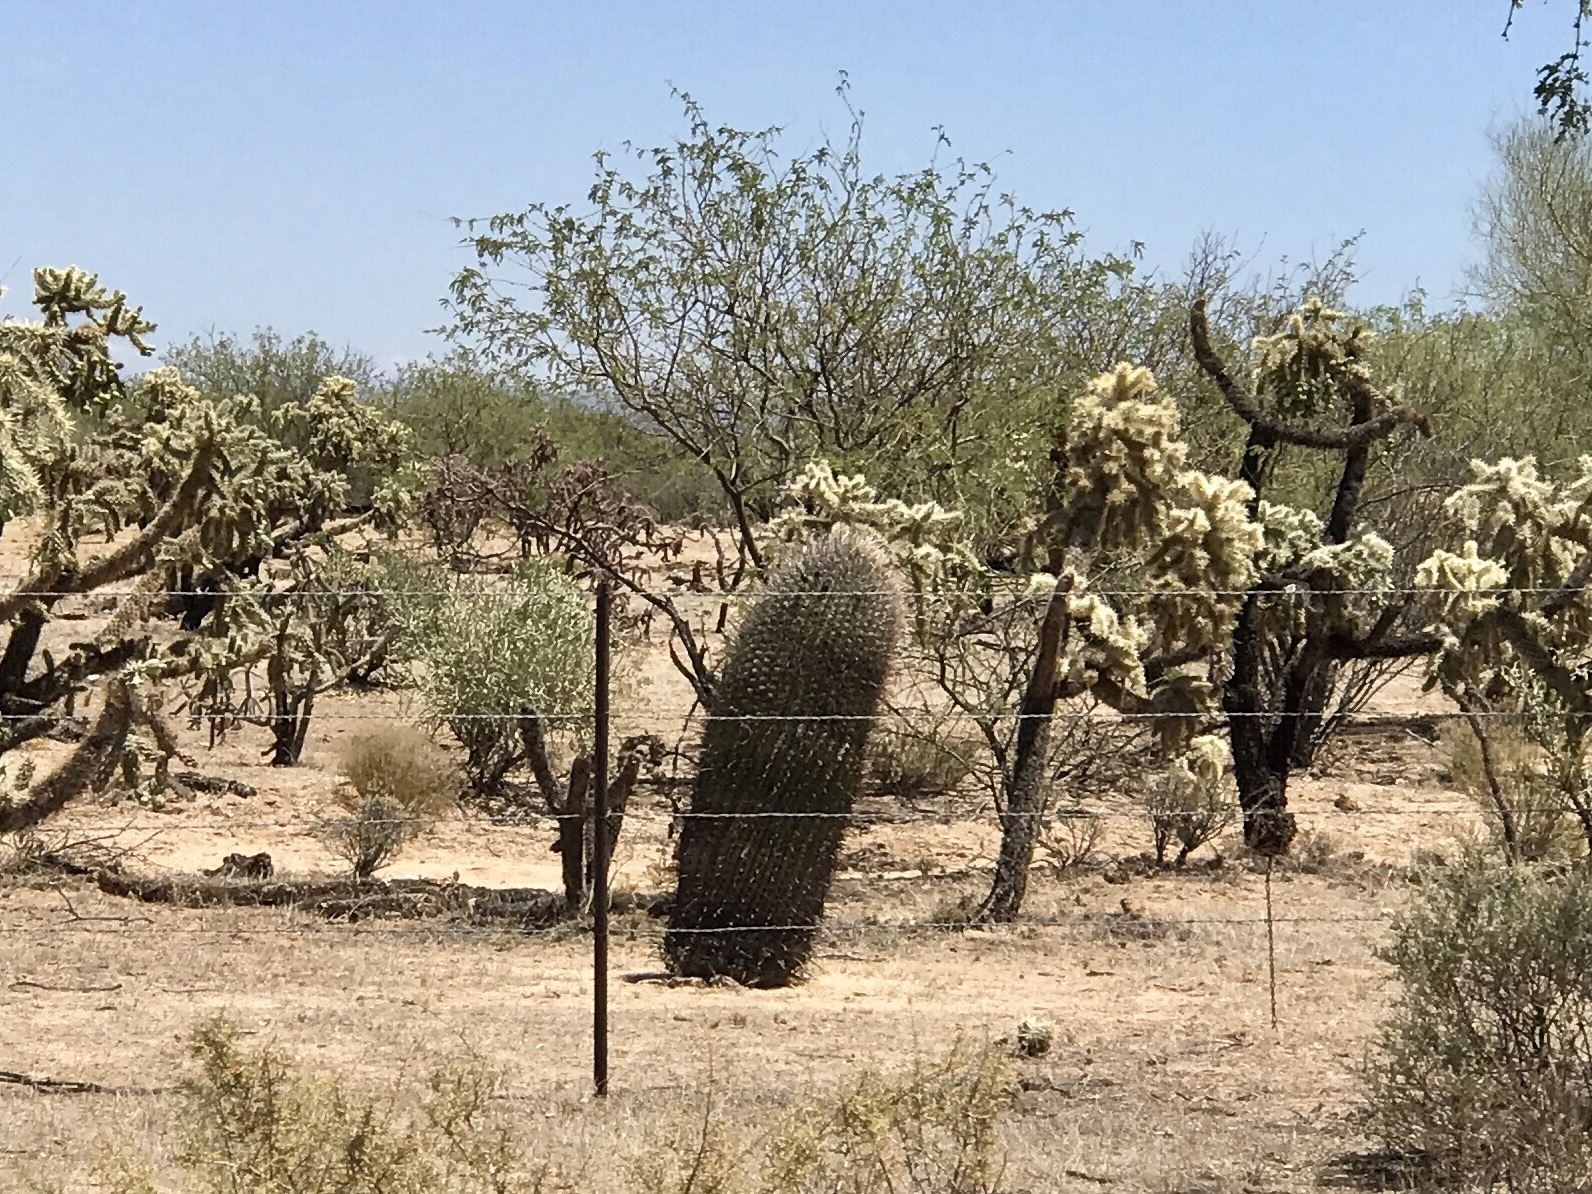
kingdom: Plantae
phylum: Tracheophyta
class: Magnoliopsida
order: Caryophyllales
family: Cactaceae
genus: Ferocactus
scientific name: Ferocactus wislizeni
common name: Candy barrel cactus
